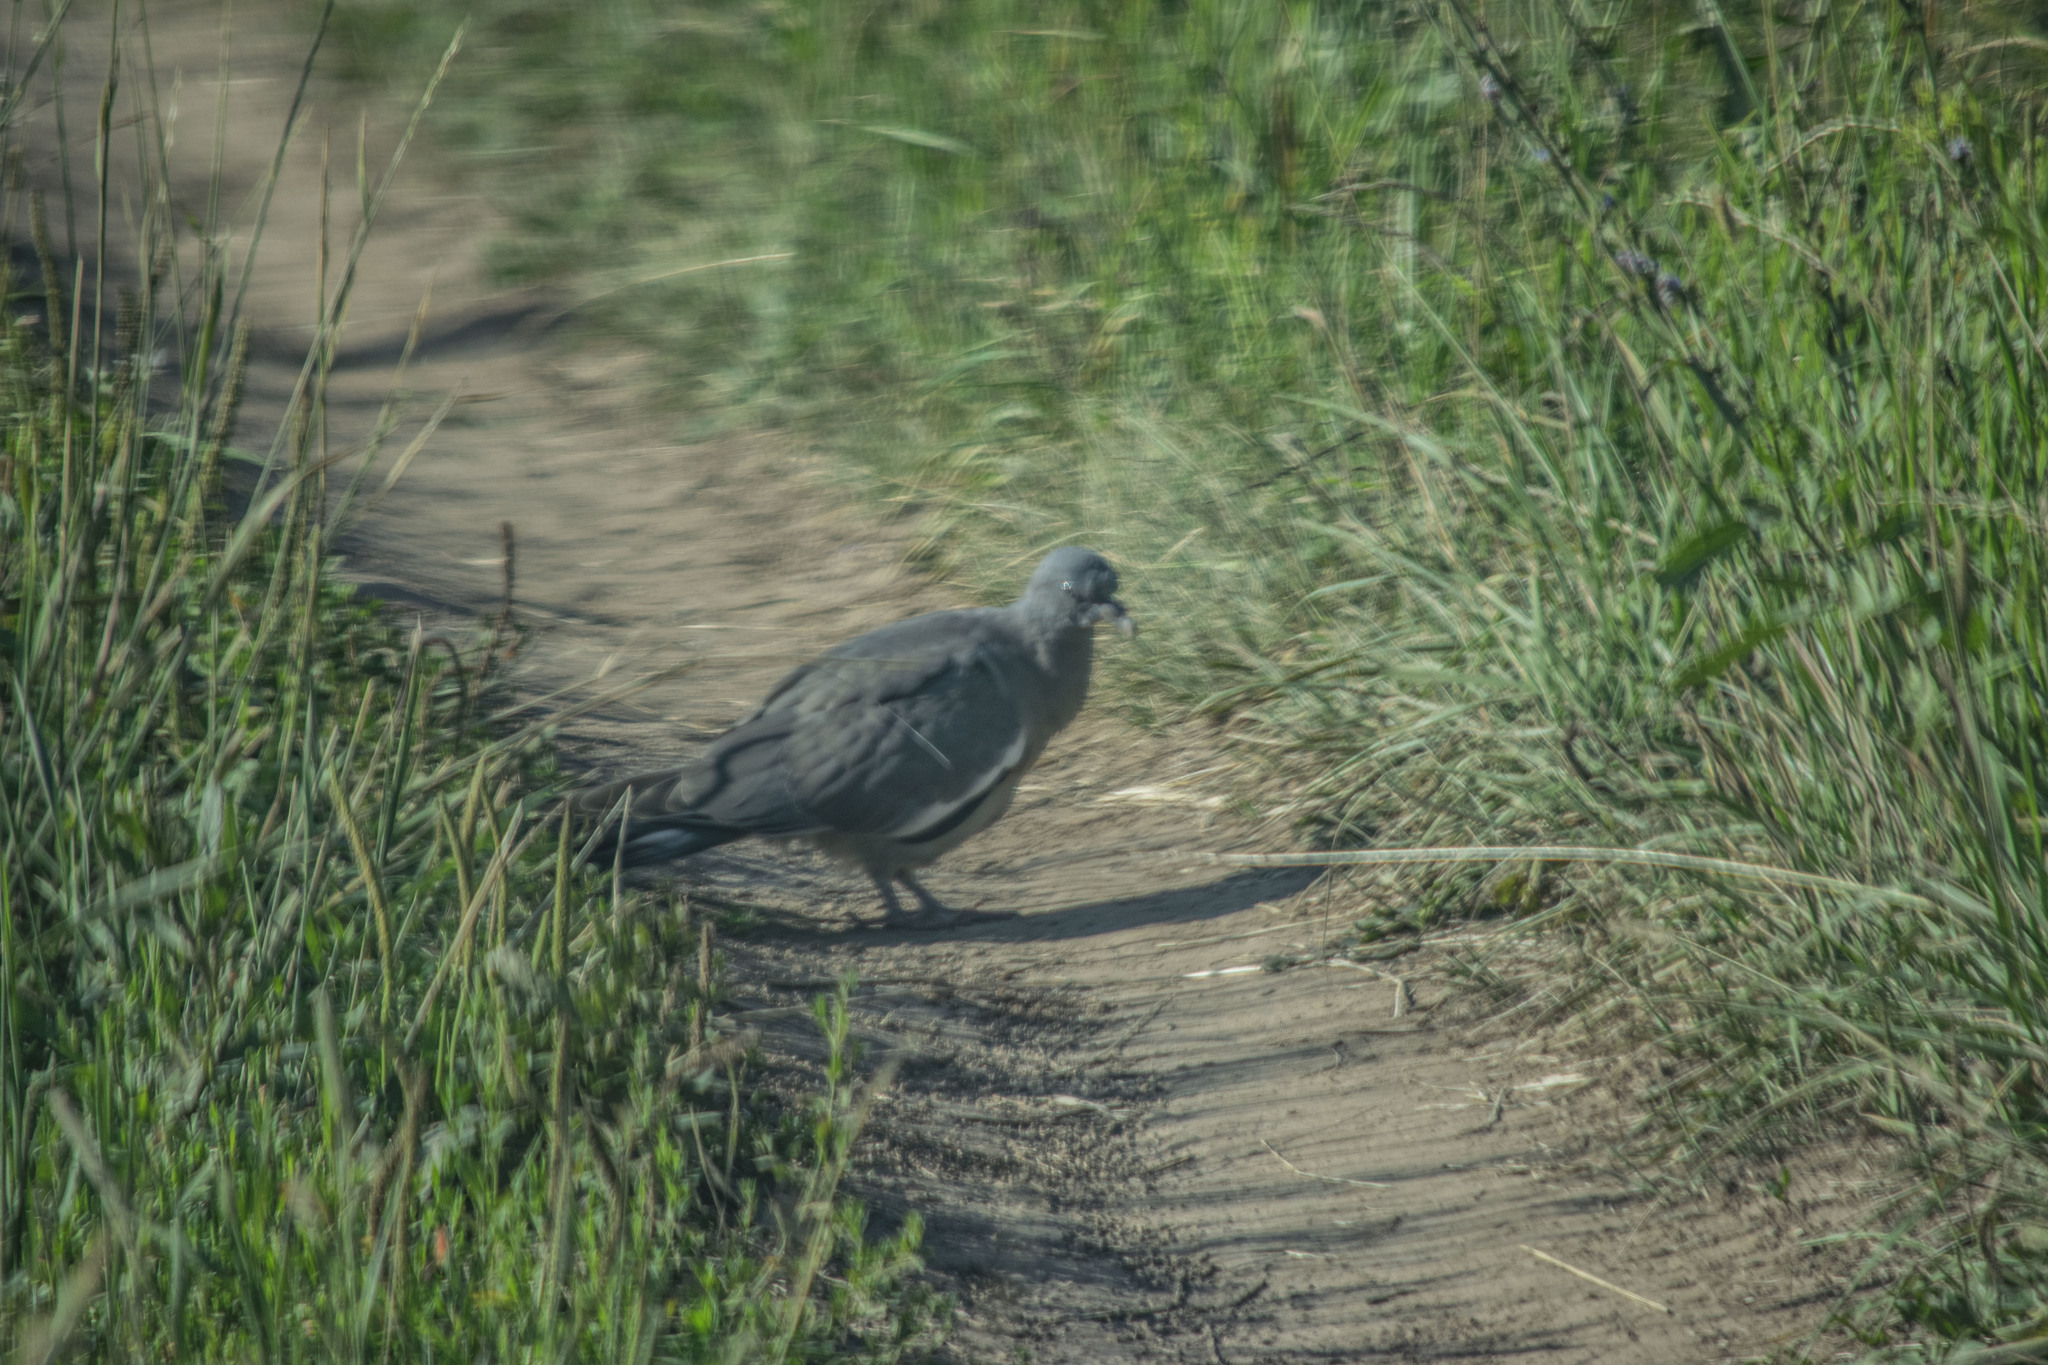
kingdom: Animalia
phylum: Chordata
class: Aves
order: Columbiformes
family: Columbidae
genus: Columba
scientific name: Columba palumbus
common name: Common wood pigeon
